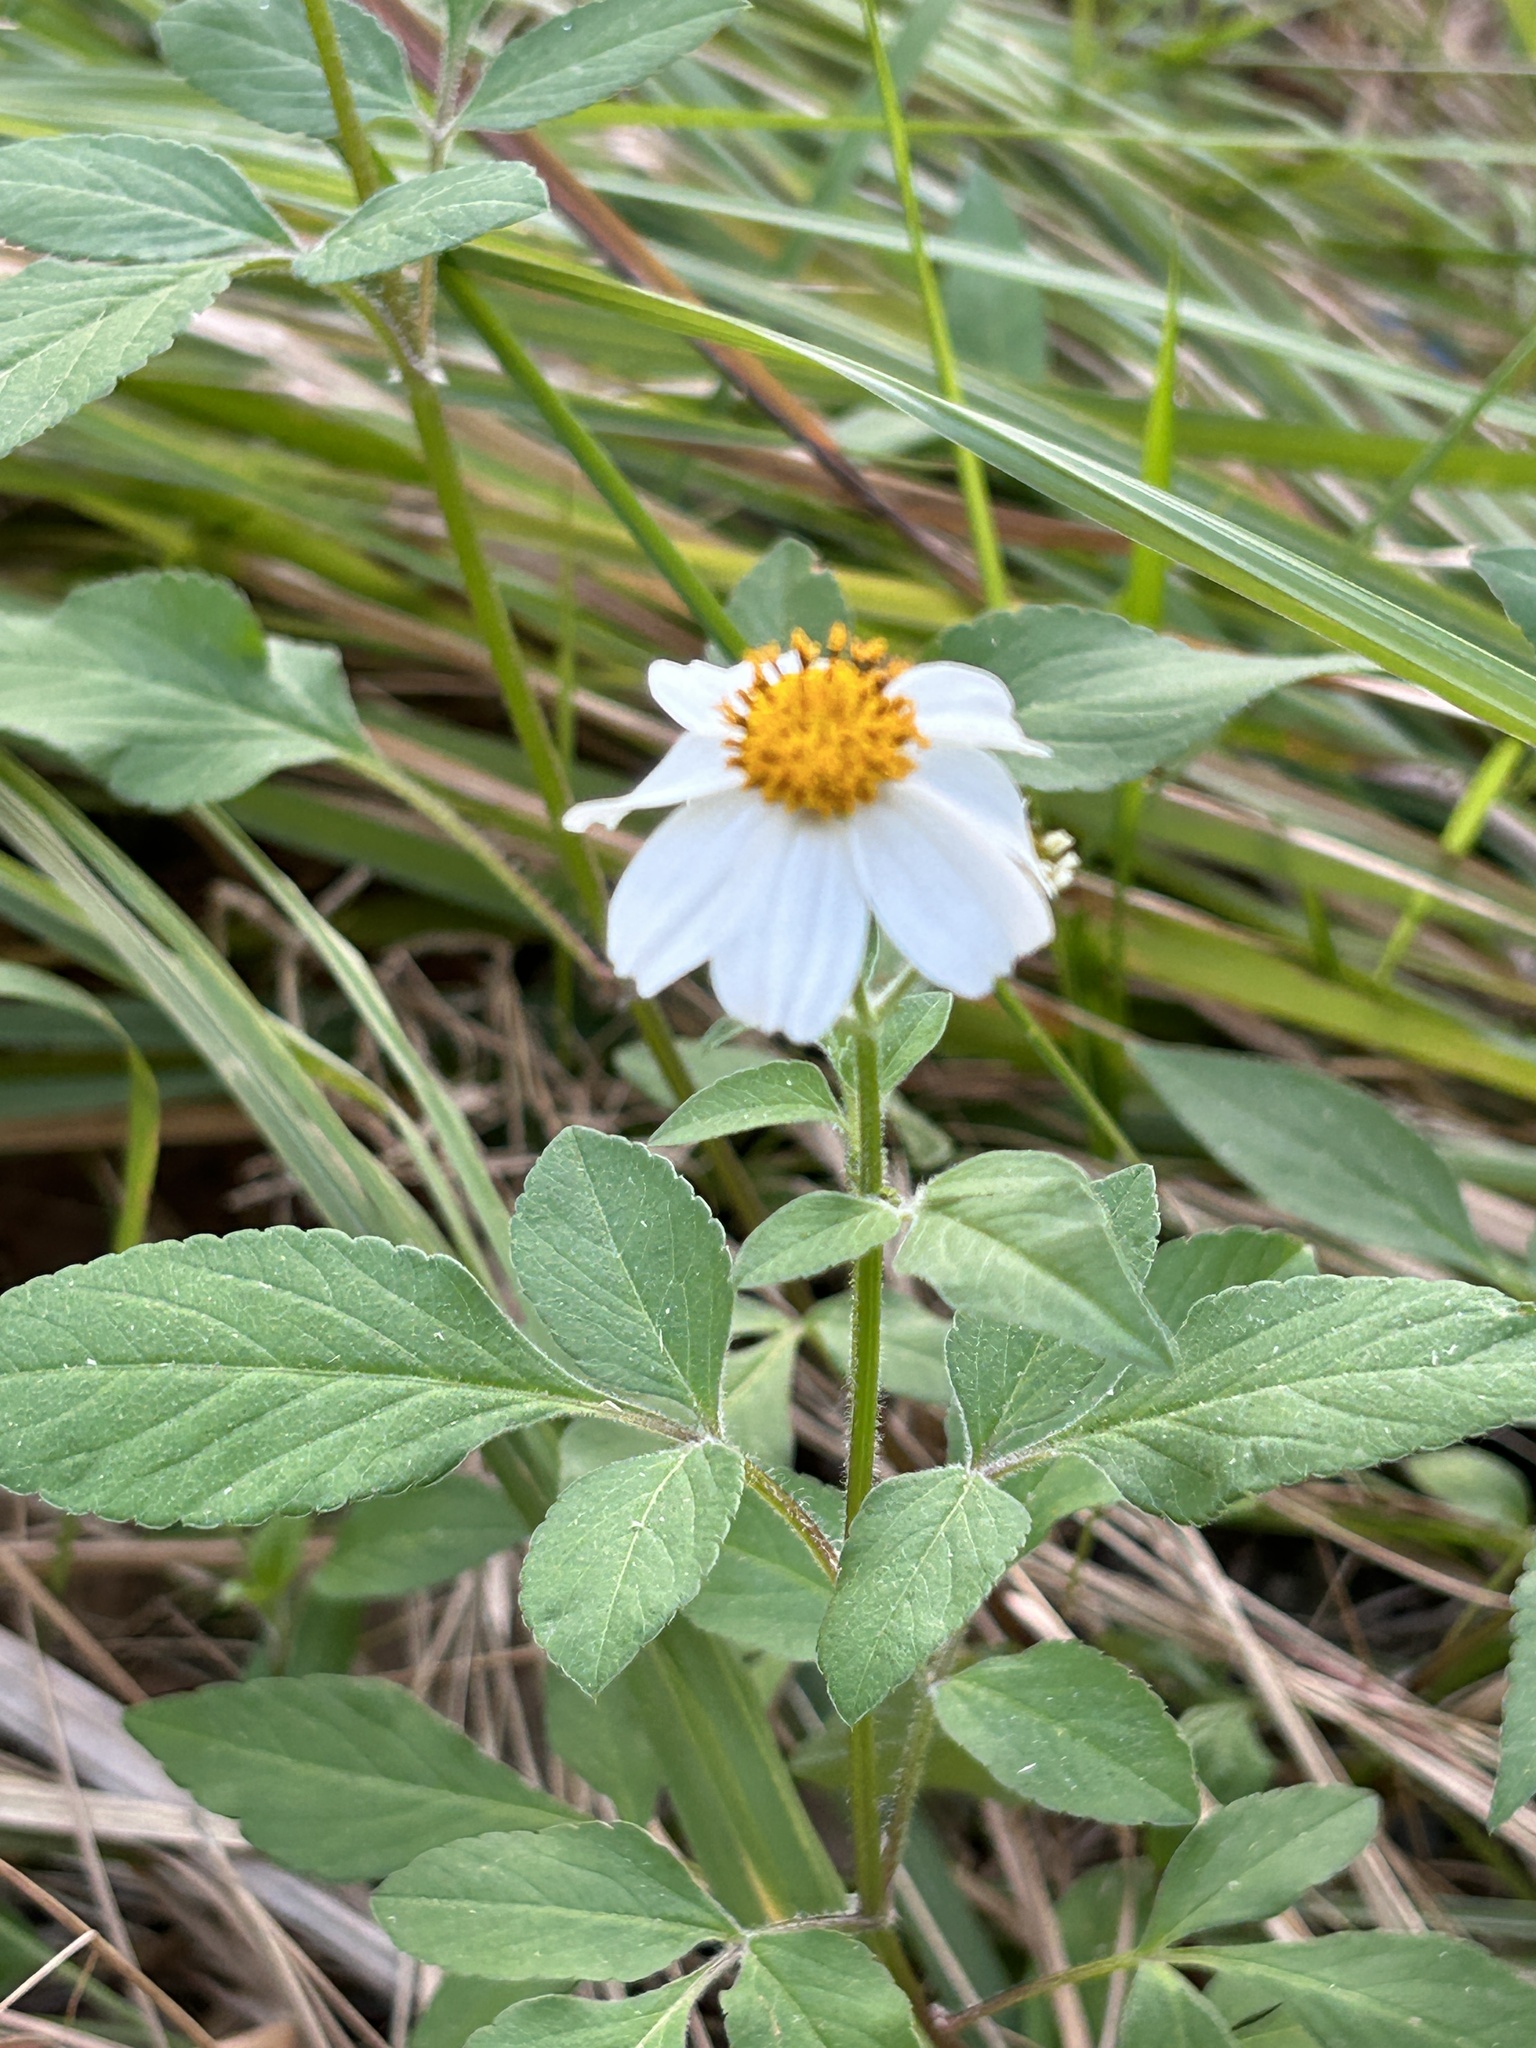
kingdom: Plantae
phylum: Tracheophyta
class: Magnoliopsida
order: Asterales
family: Asteraceae
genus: Bidens
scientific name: Bidens alba
